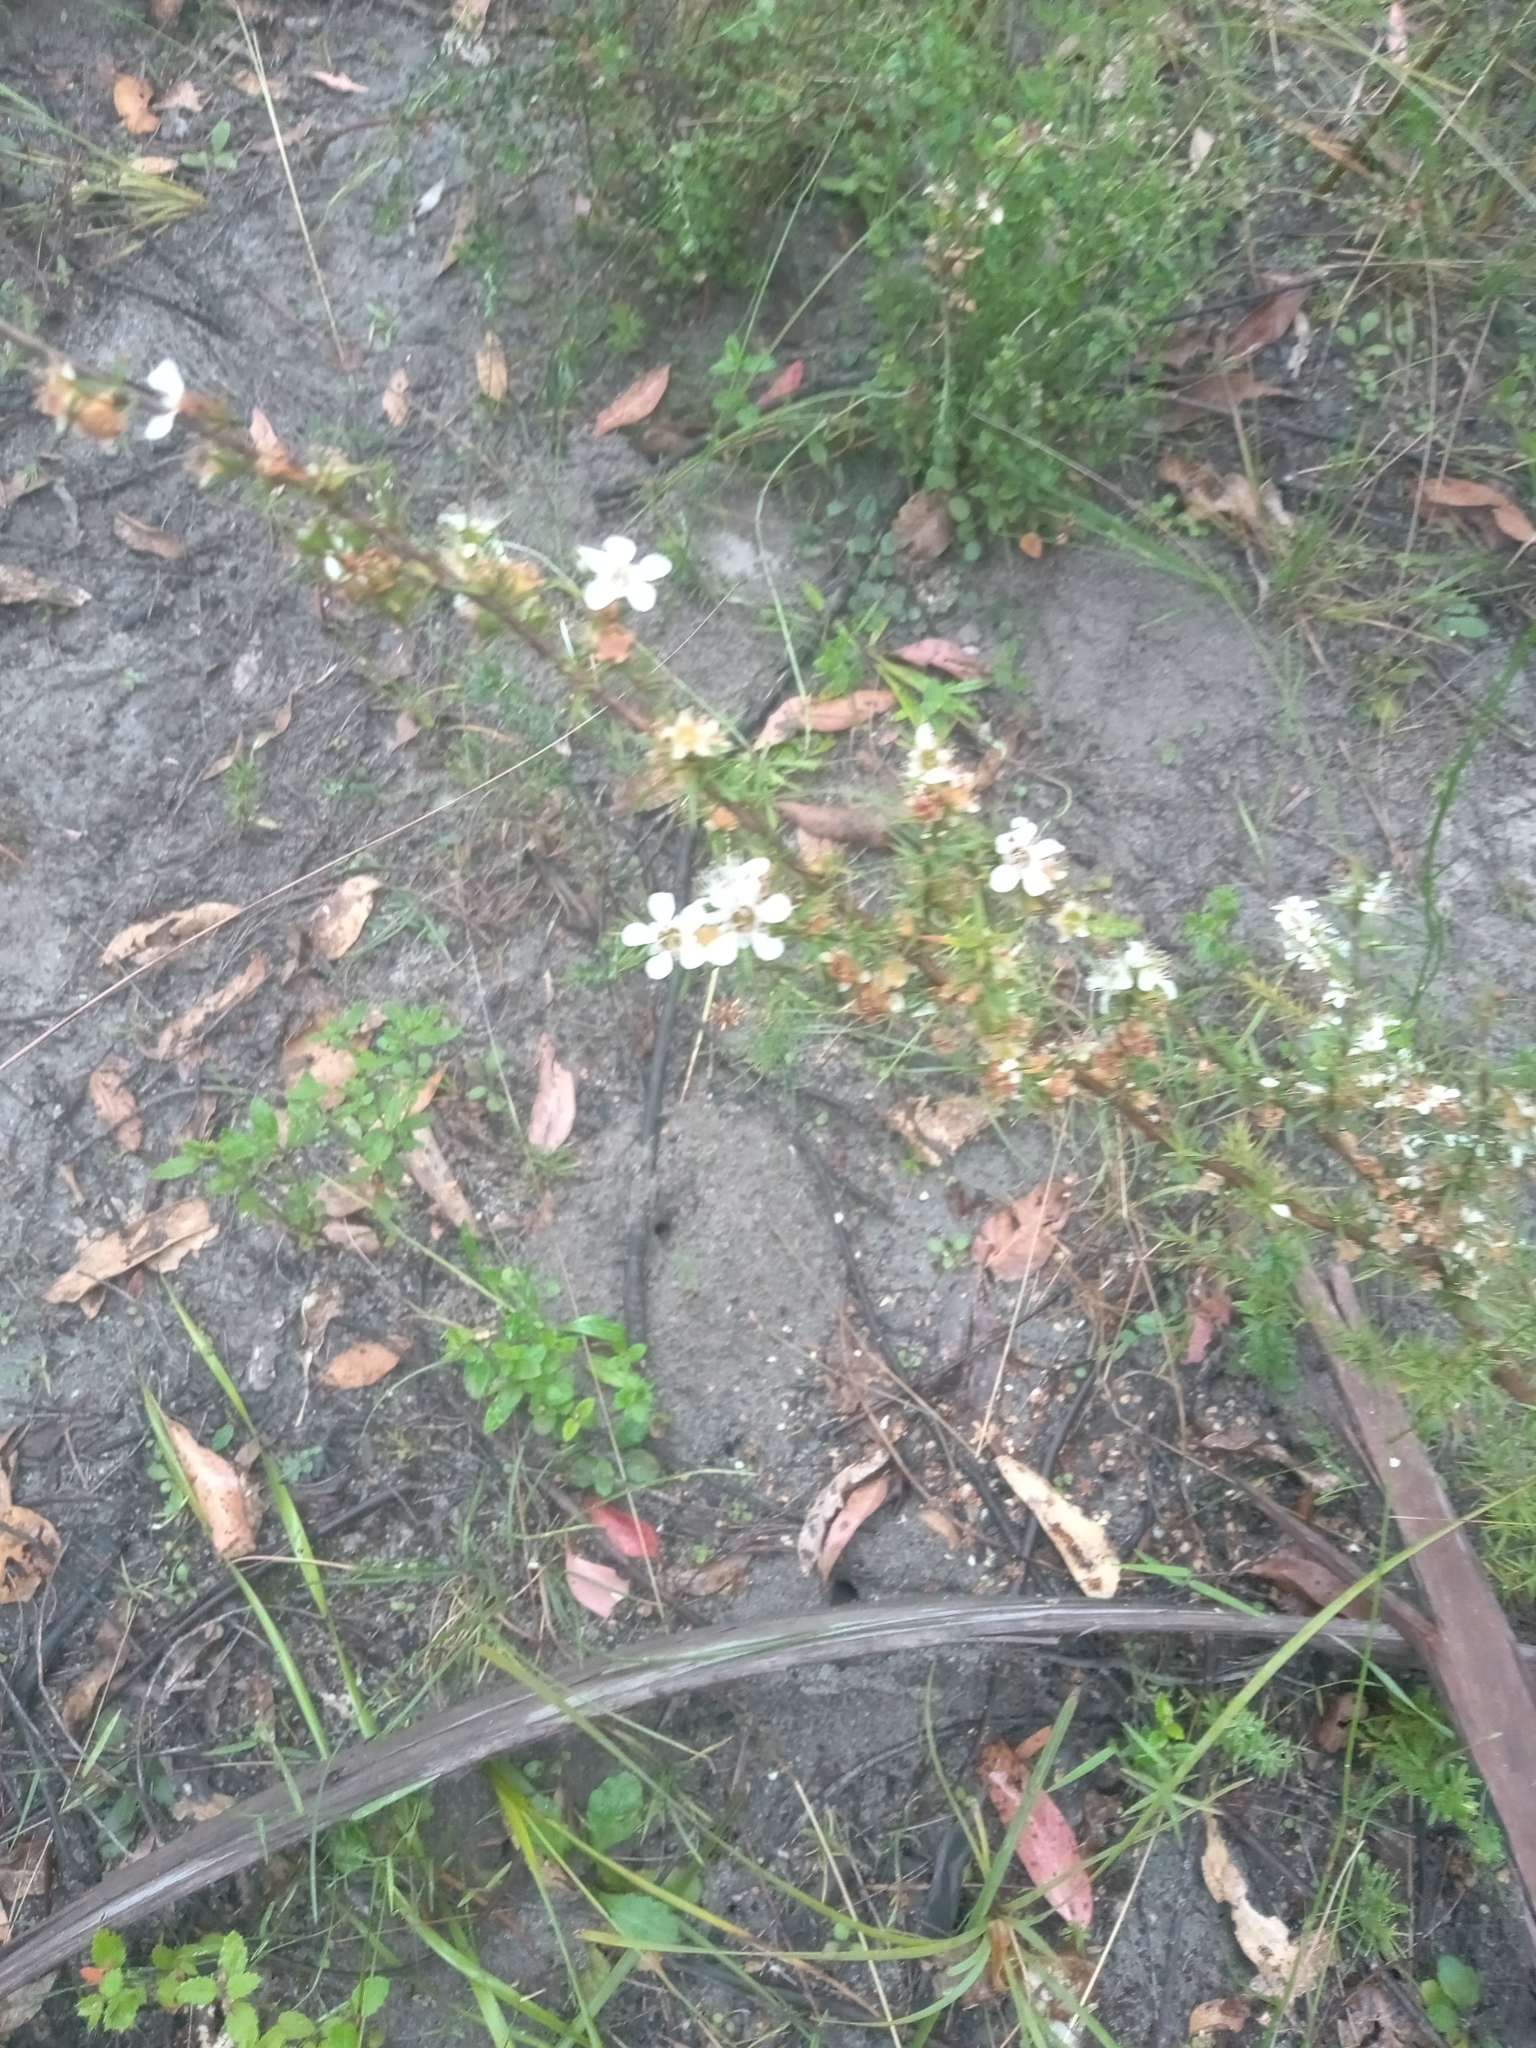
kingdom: Plantae
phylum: Tracheophyta
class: Magnoliopsida
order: Myrtales
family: Myrtaceae
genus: Leptospermum
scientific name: Leptospermum continentale
